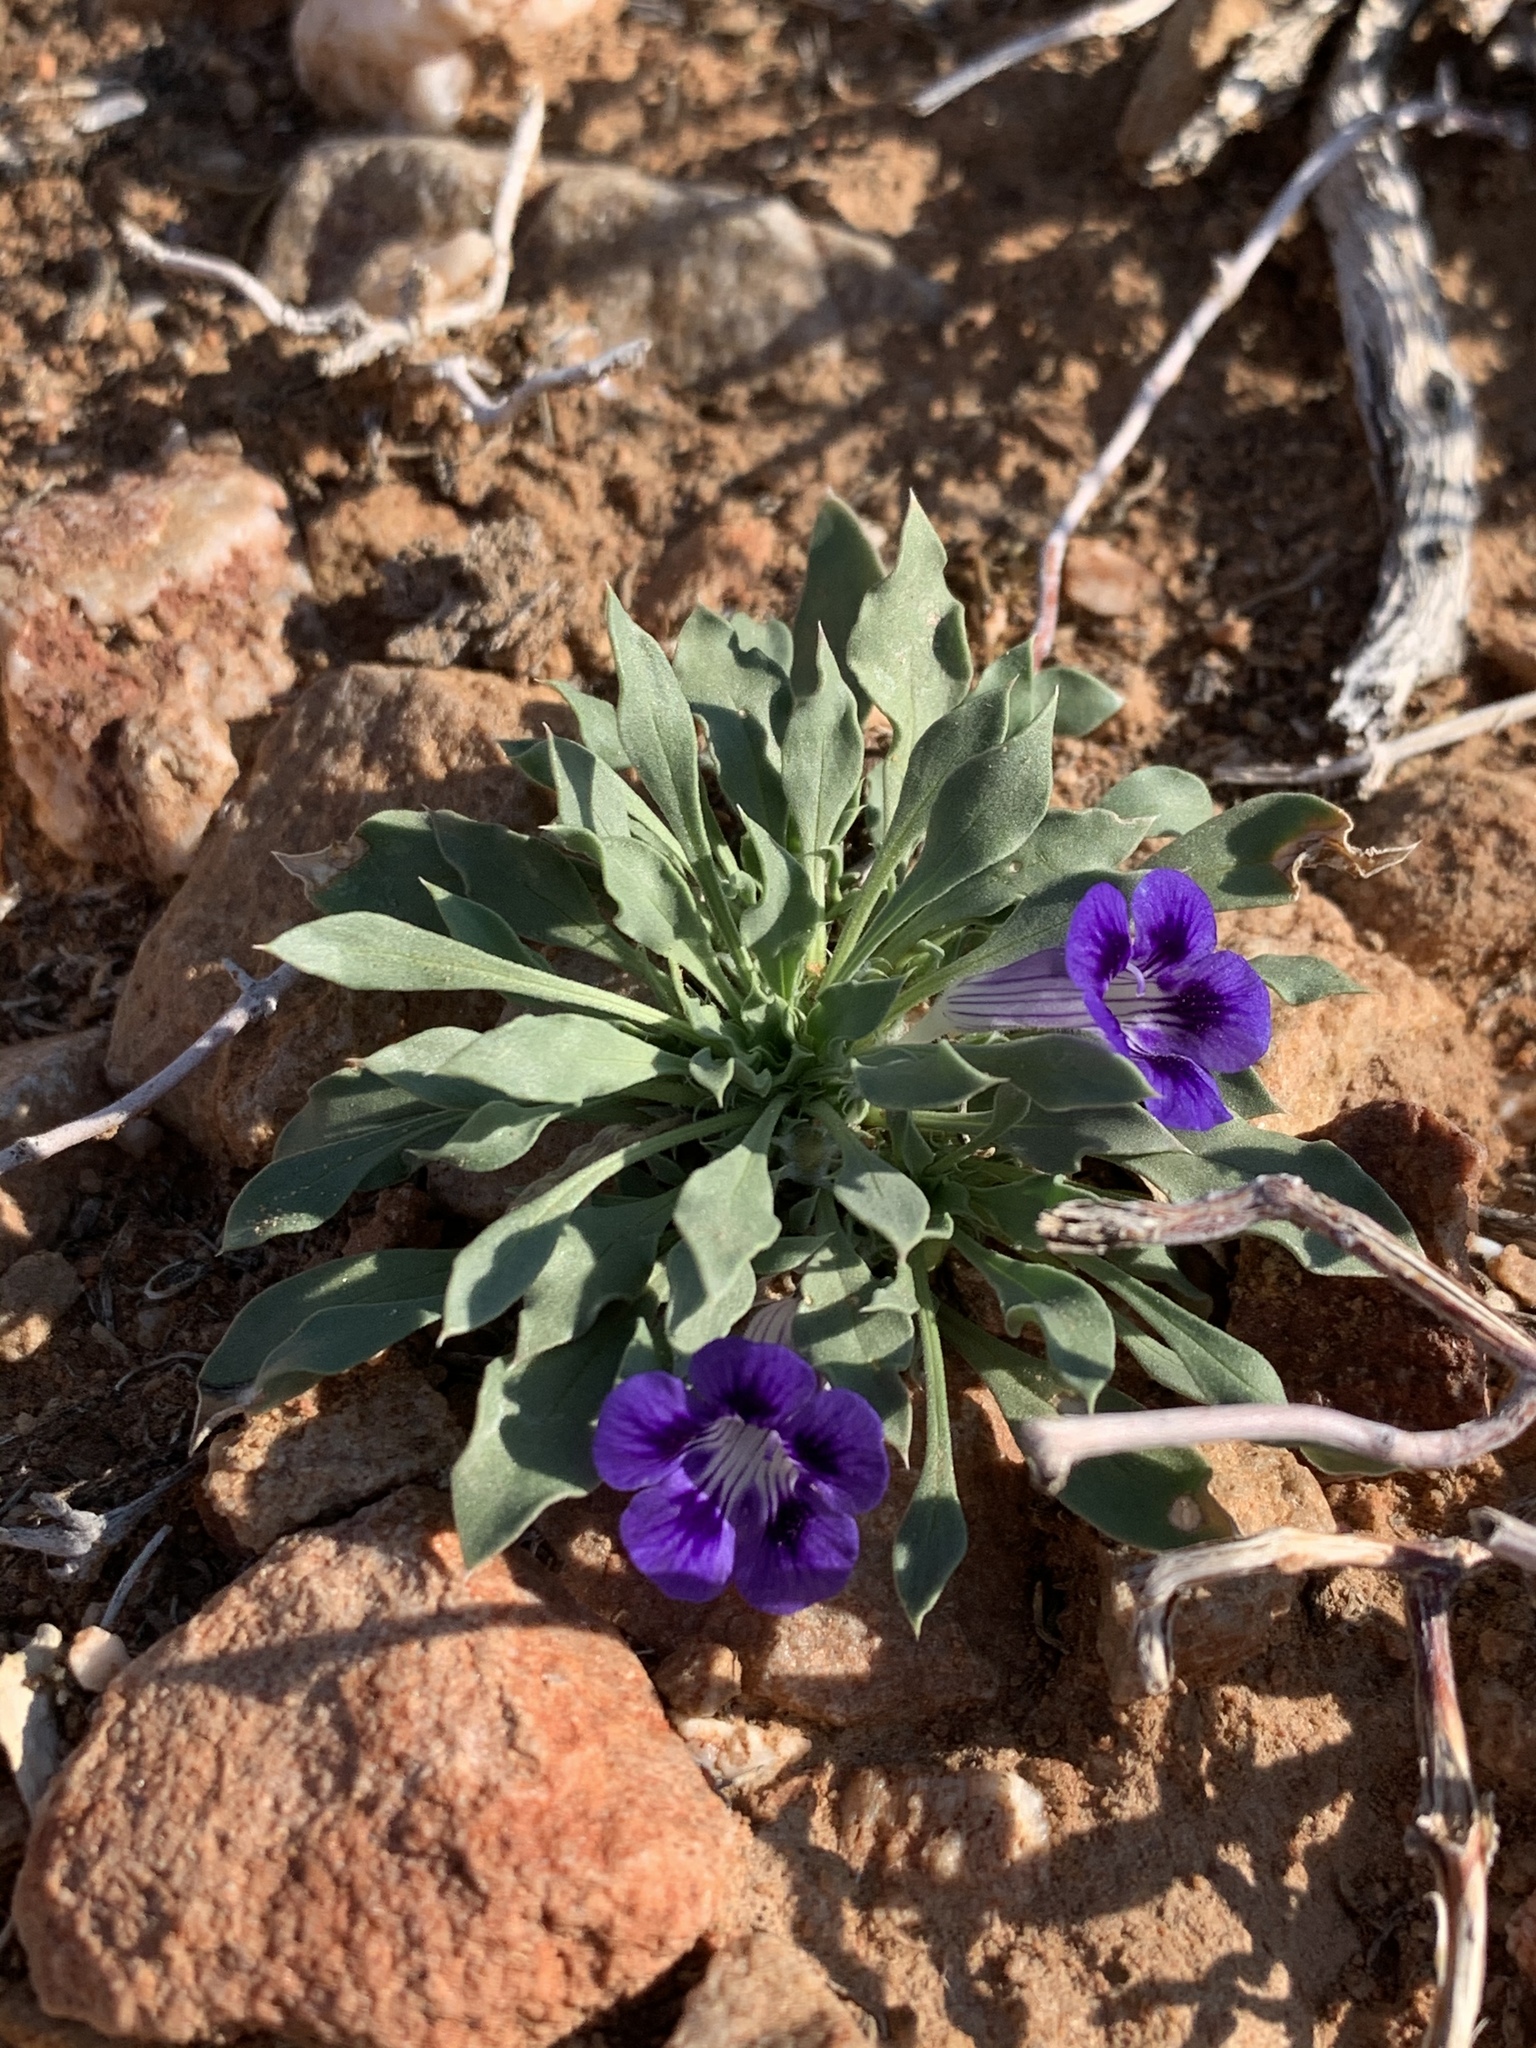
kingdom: Plantae
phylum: Tracheophyta
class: Magnoliopsida
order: Lamiales
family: Scrophulariaceae
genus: Aptosimum
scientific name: Aptosimum indivisum
